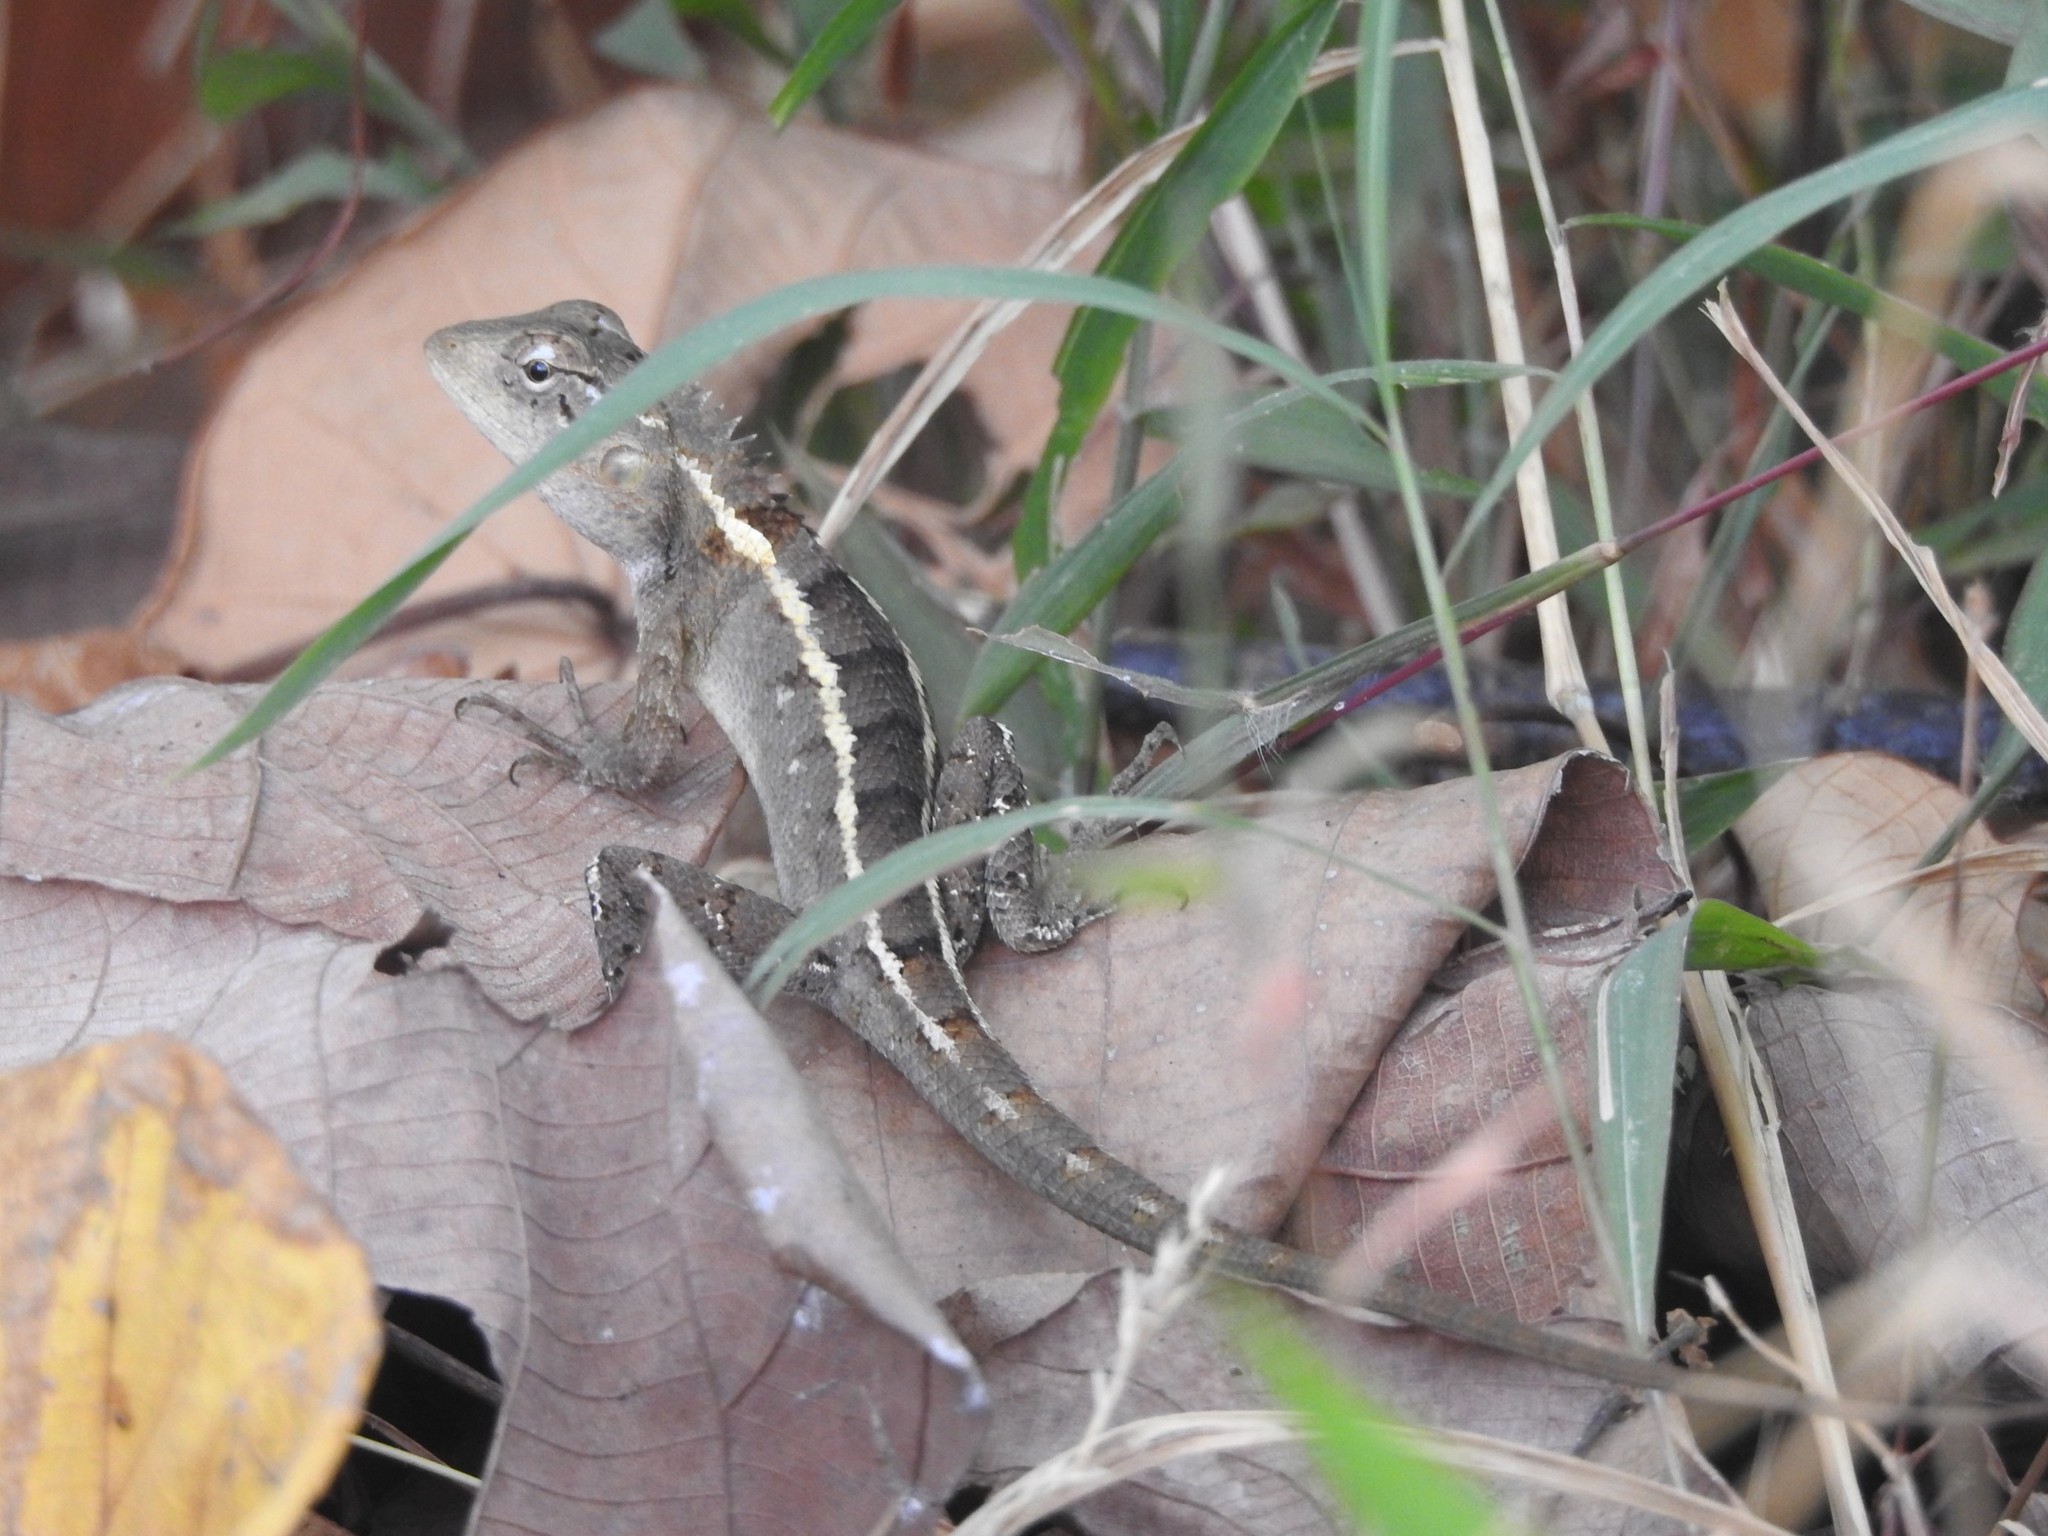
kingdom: Animalia
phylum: Chordata
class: Squamata
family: Agamidae
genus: Calotes
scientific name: Calotes versicolor
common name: Oriental garden lizard
